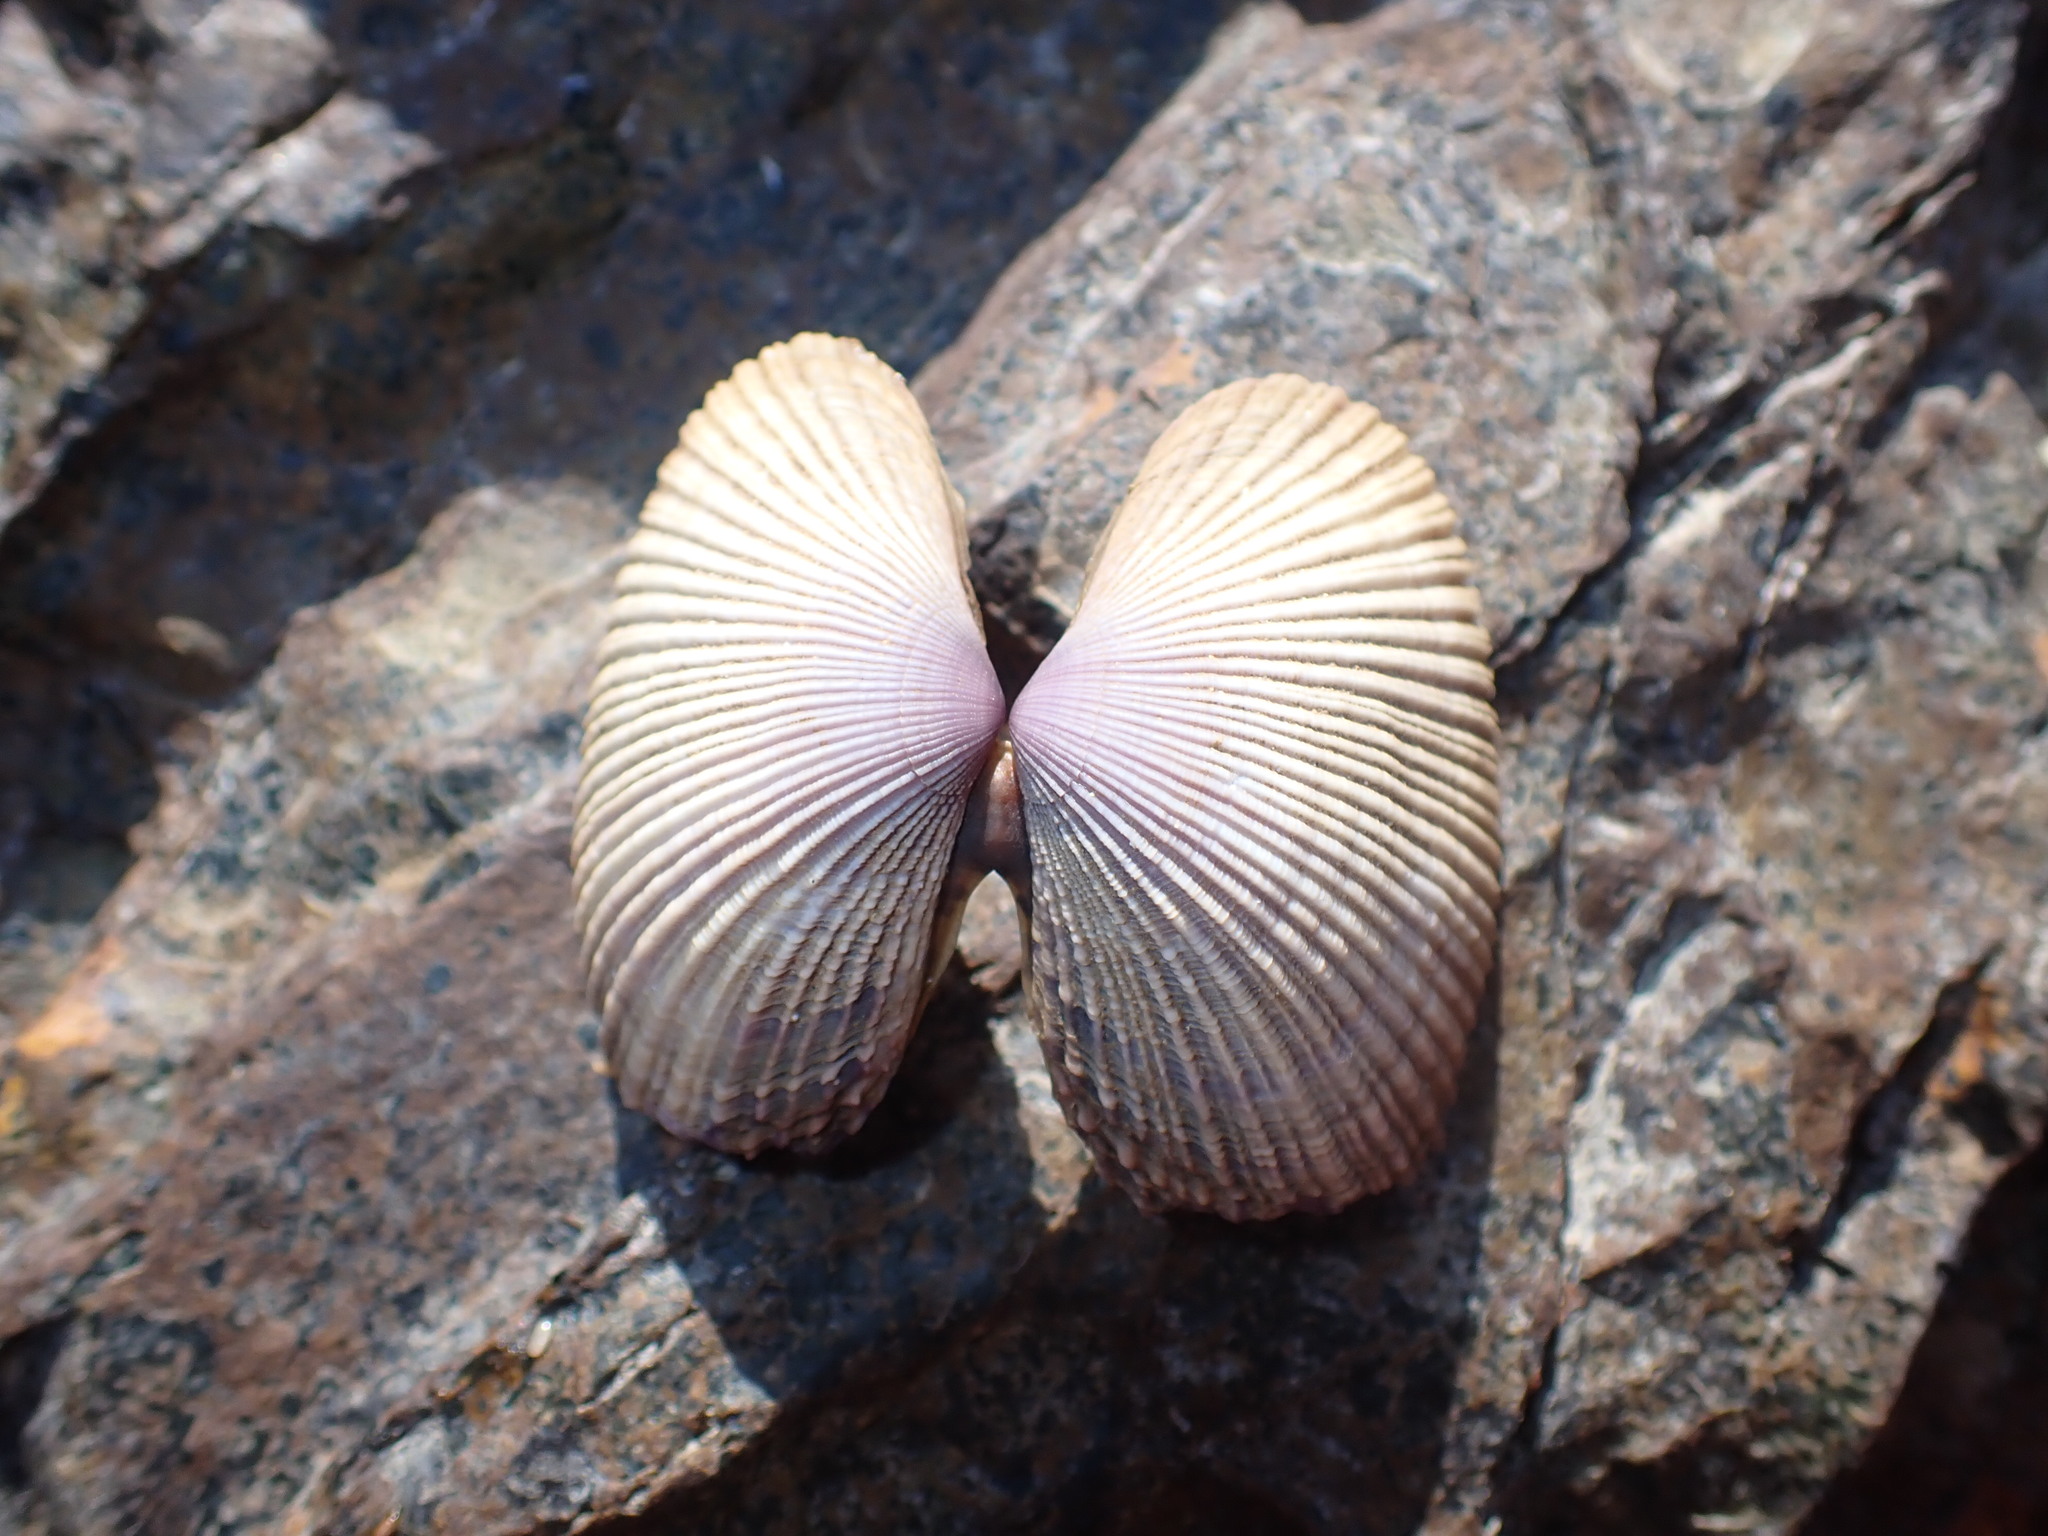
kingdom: Animalia
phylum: Mollusca
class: Bivalvia
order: Cardiida
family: Psammobiidae
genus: Asaphis
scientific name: Asaphis violascens
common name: Pacific asaphis
